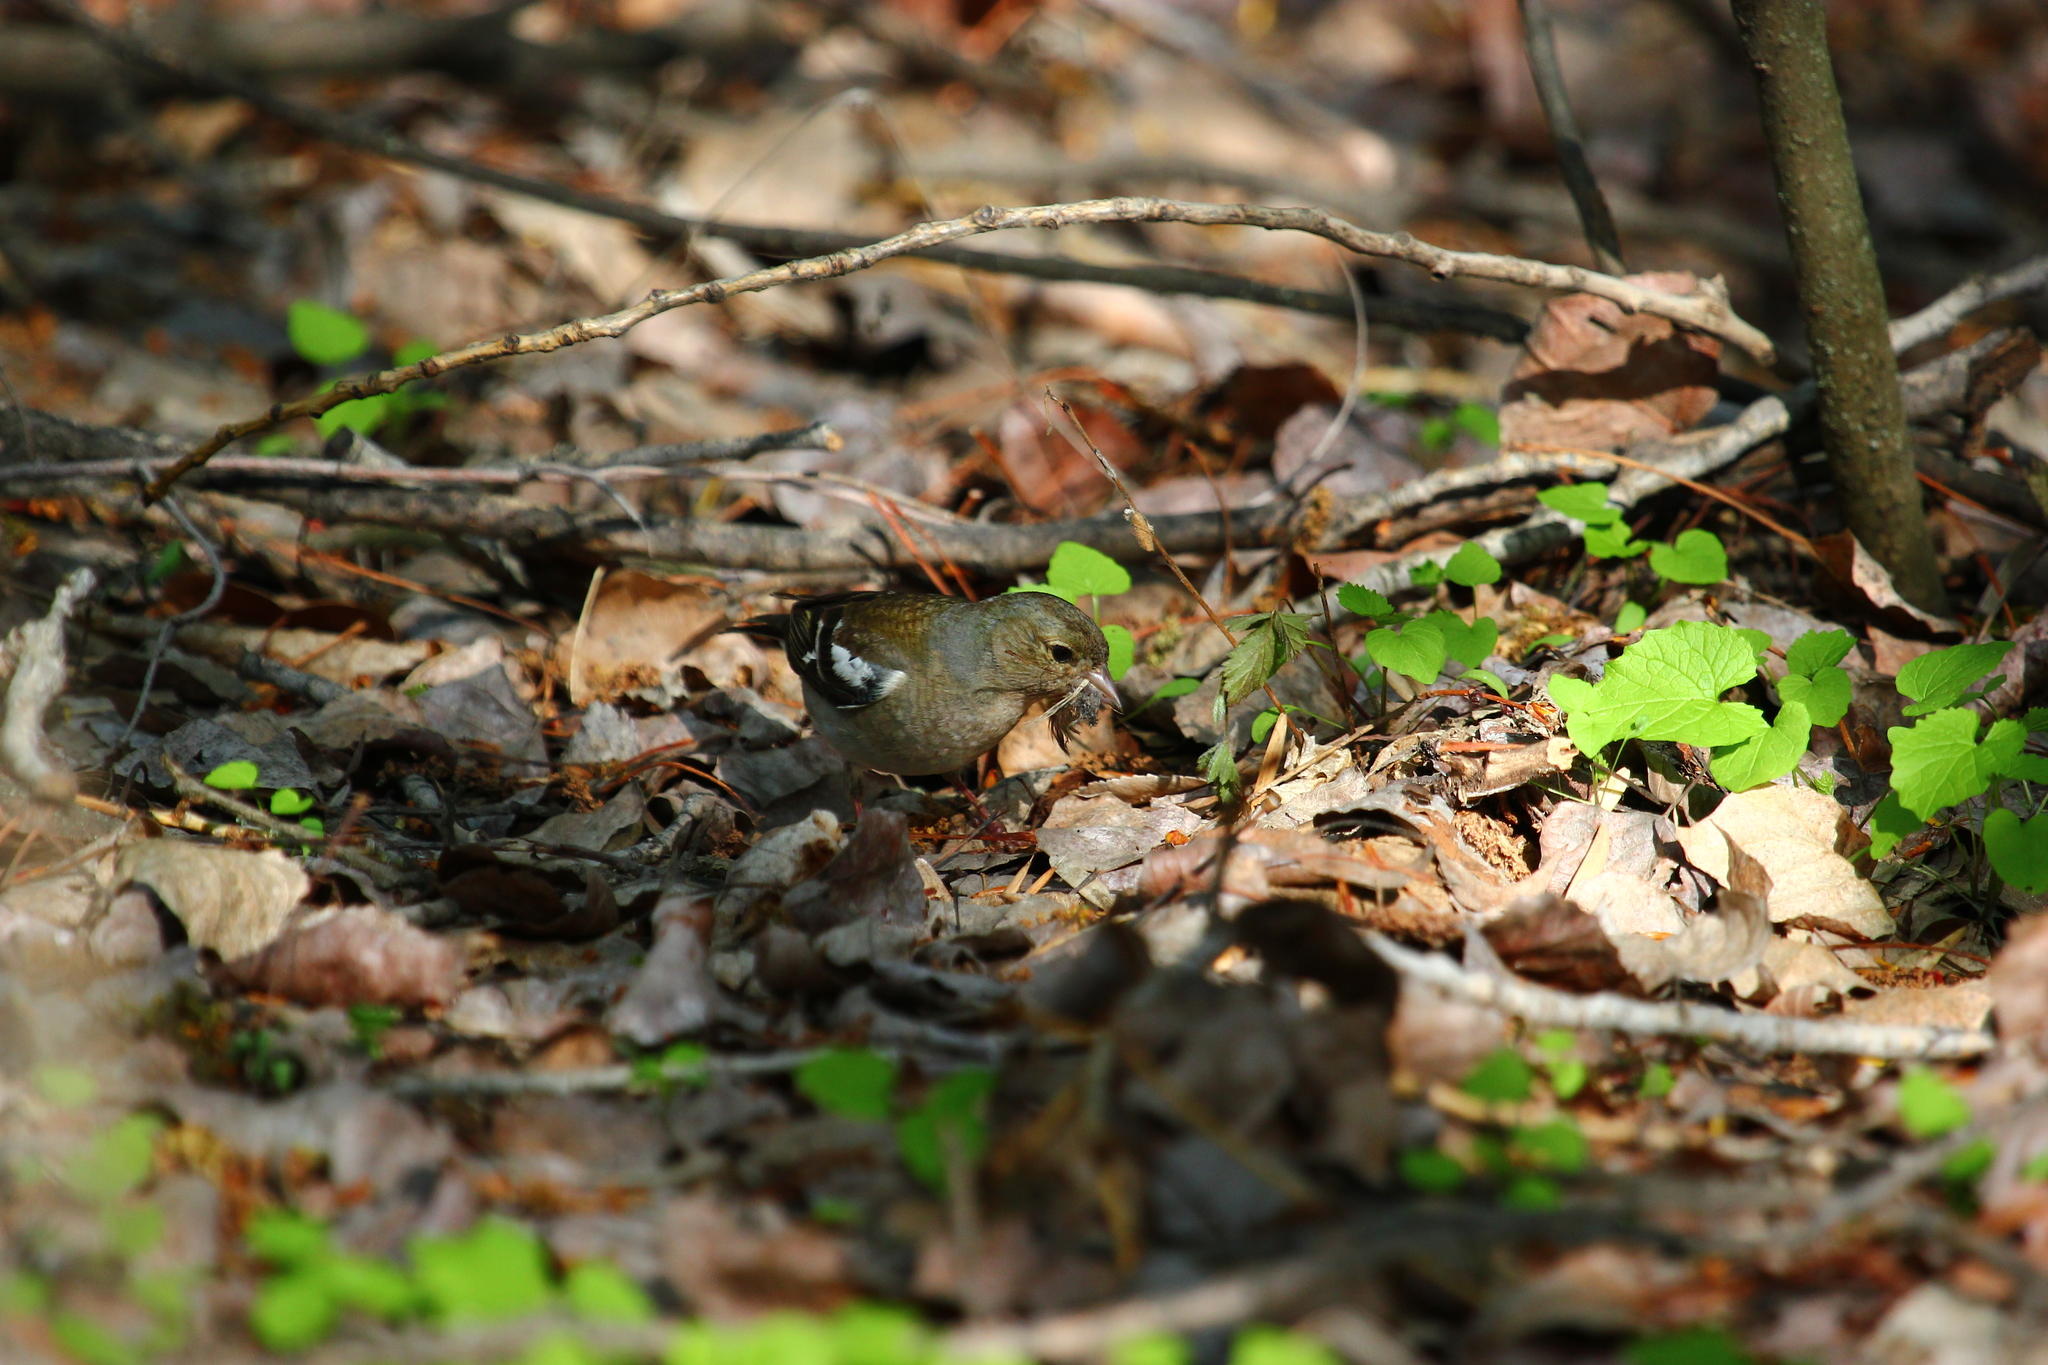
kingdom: Animalia
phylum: Chordata
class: Aves
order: Passeriformes
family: Fringillidae
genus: Fringilla
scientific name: Fringilla coelebs
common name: Common chaffinch
